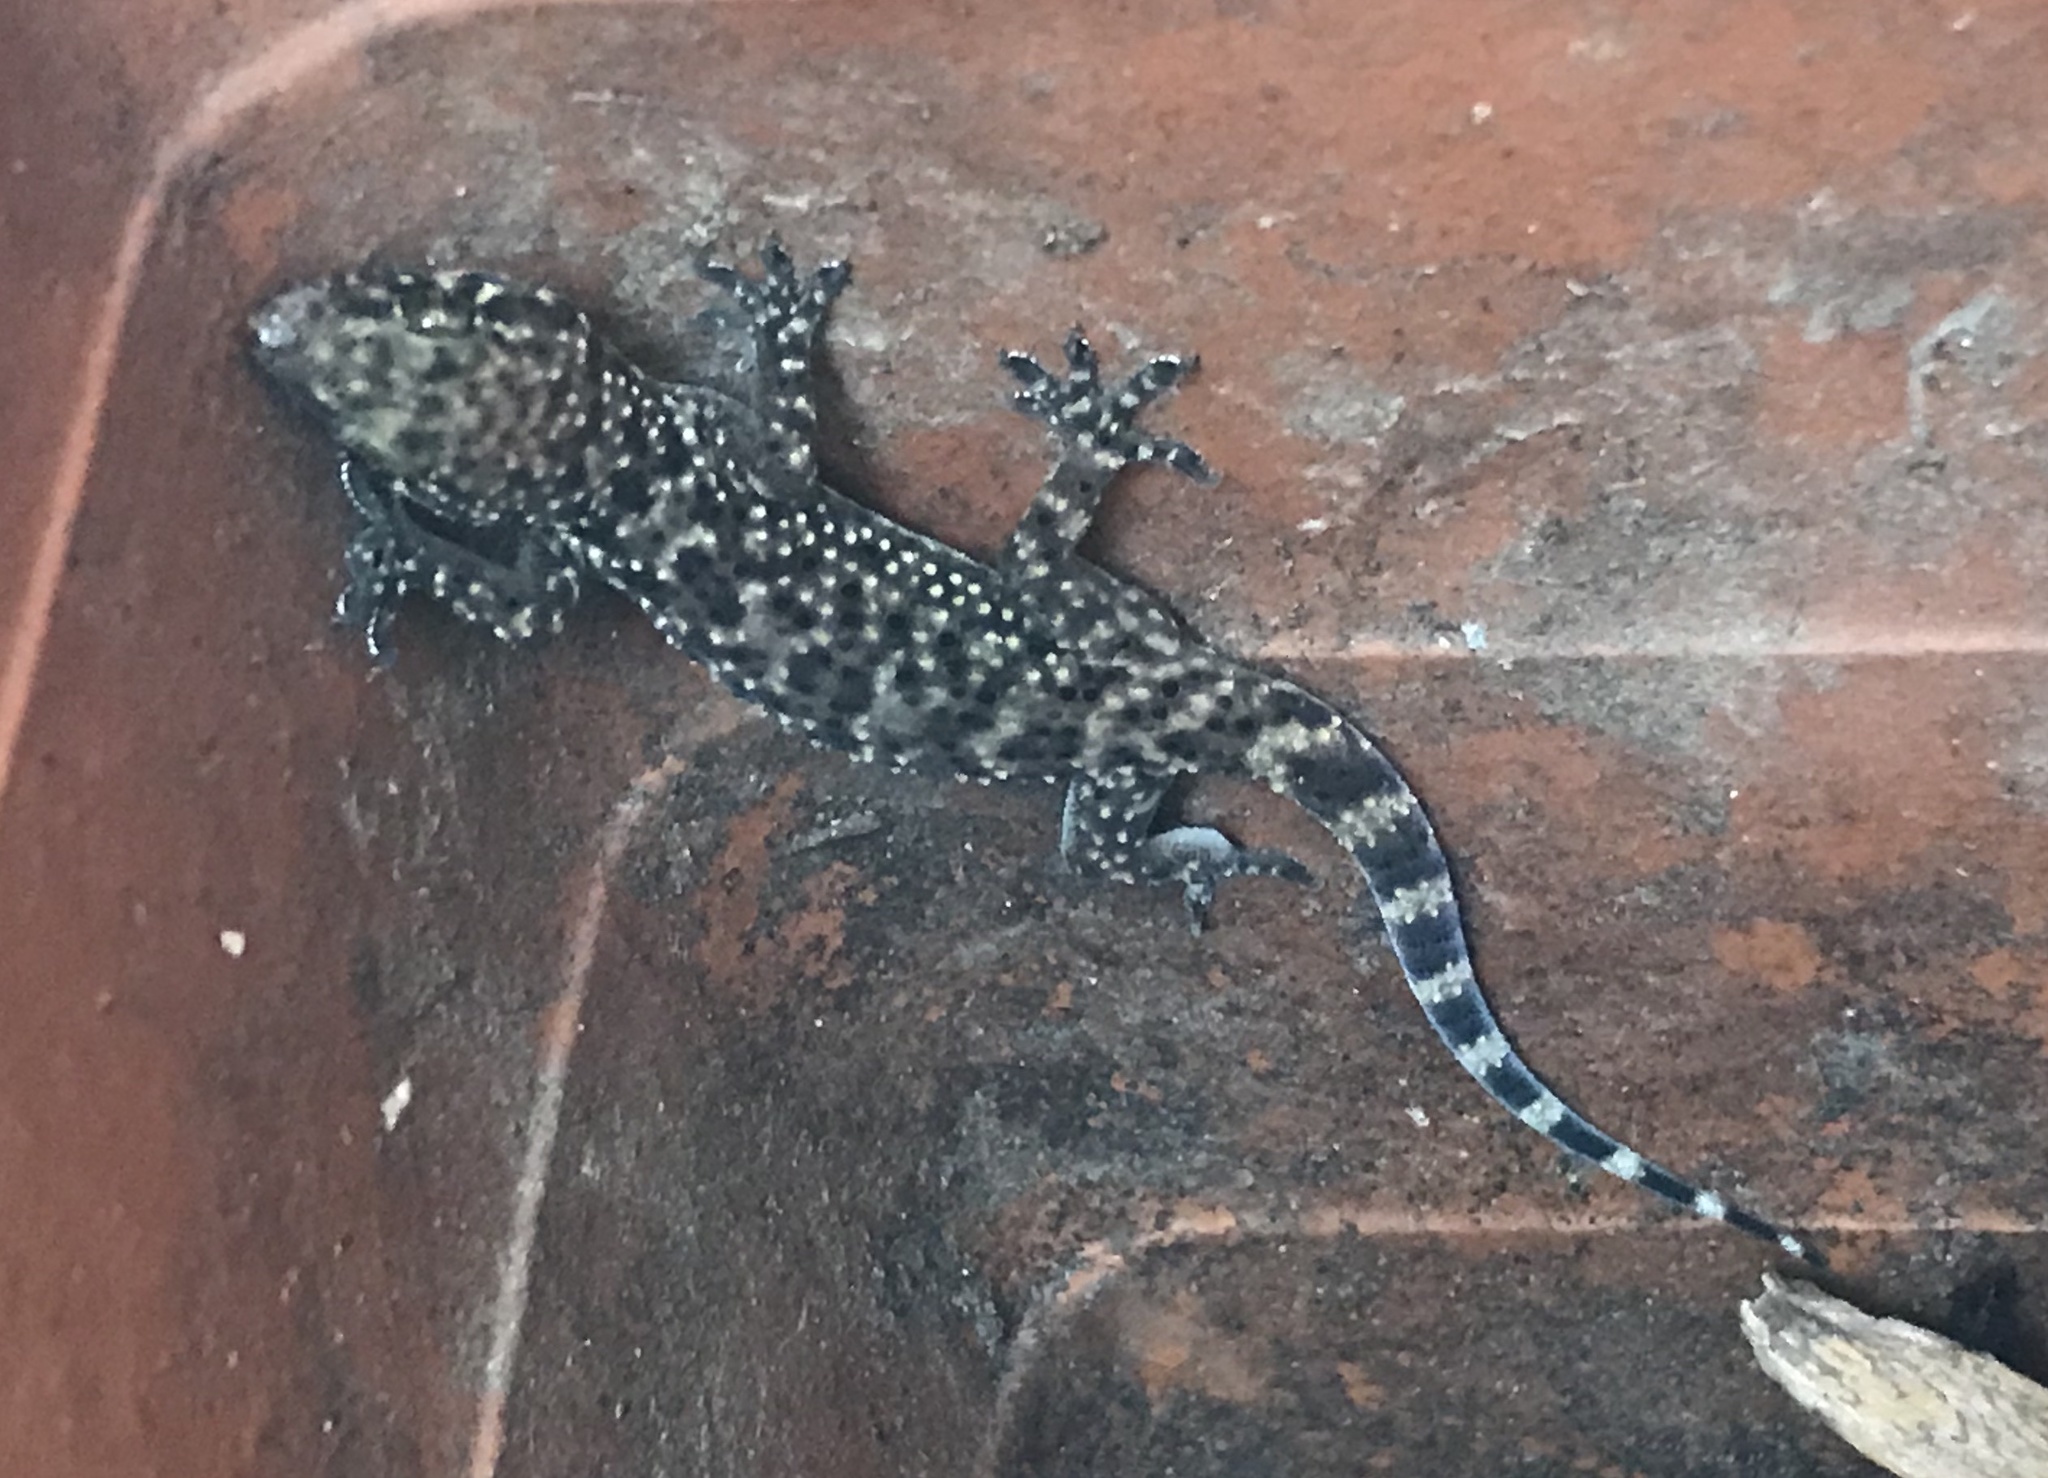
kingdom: Animalia
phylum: Chordata
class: Squamata
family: Gekkonidae
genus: Hemidactylus
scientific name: Hemidactylus turcicus
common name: Turkish gecko
